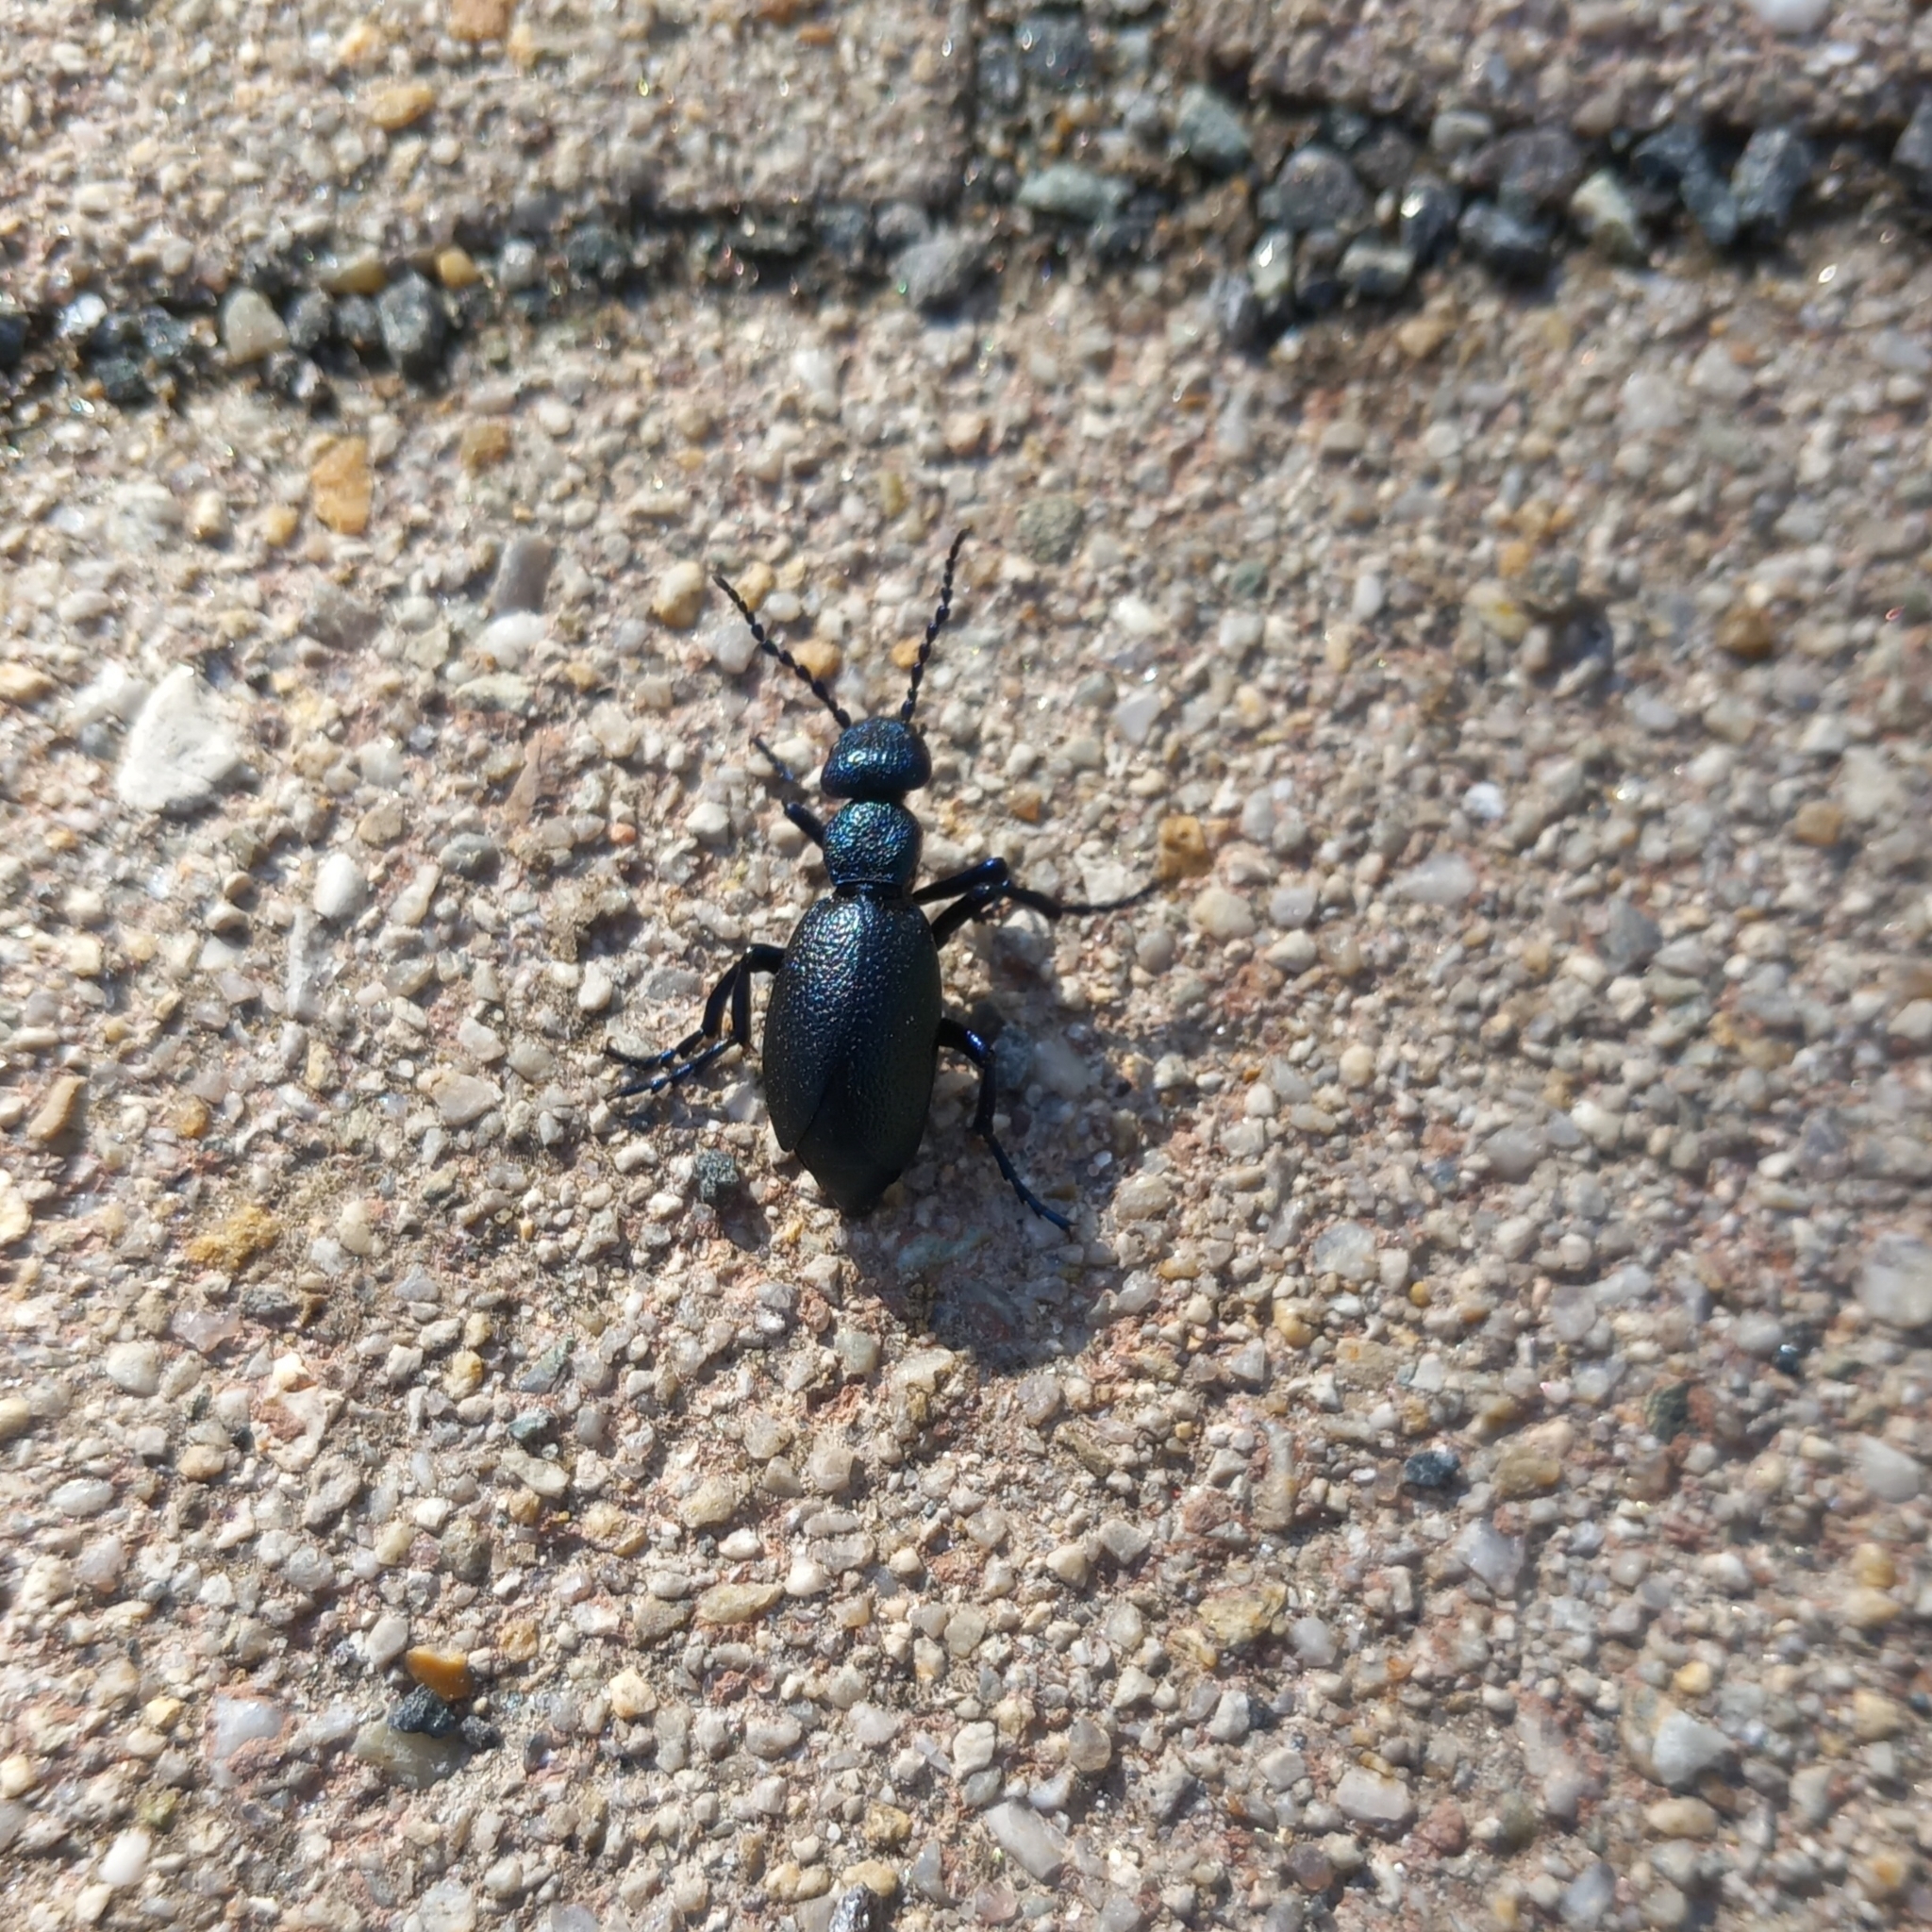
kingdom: Animalia
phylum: Arthropoda
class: Insecta
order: Coleoptera
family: Meloidae
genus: Meloe
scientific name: Meloe proscarabaeus
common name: Black oil-beetle
